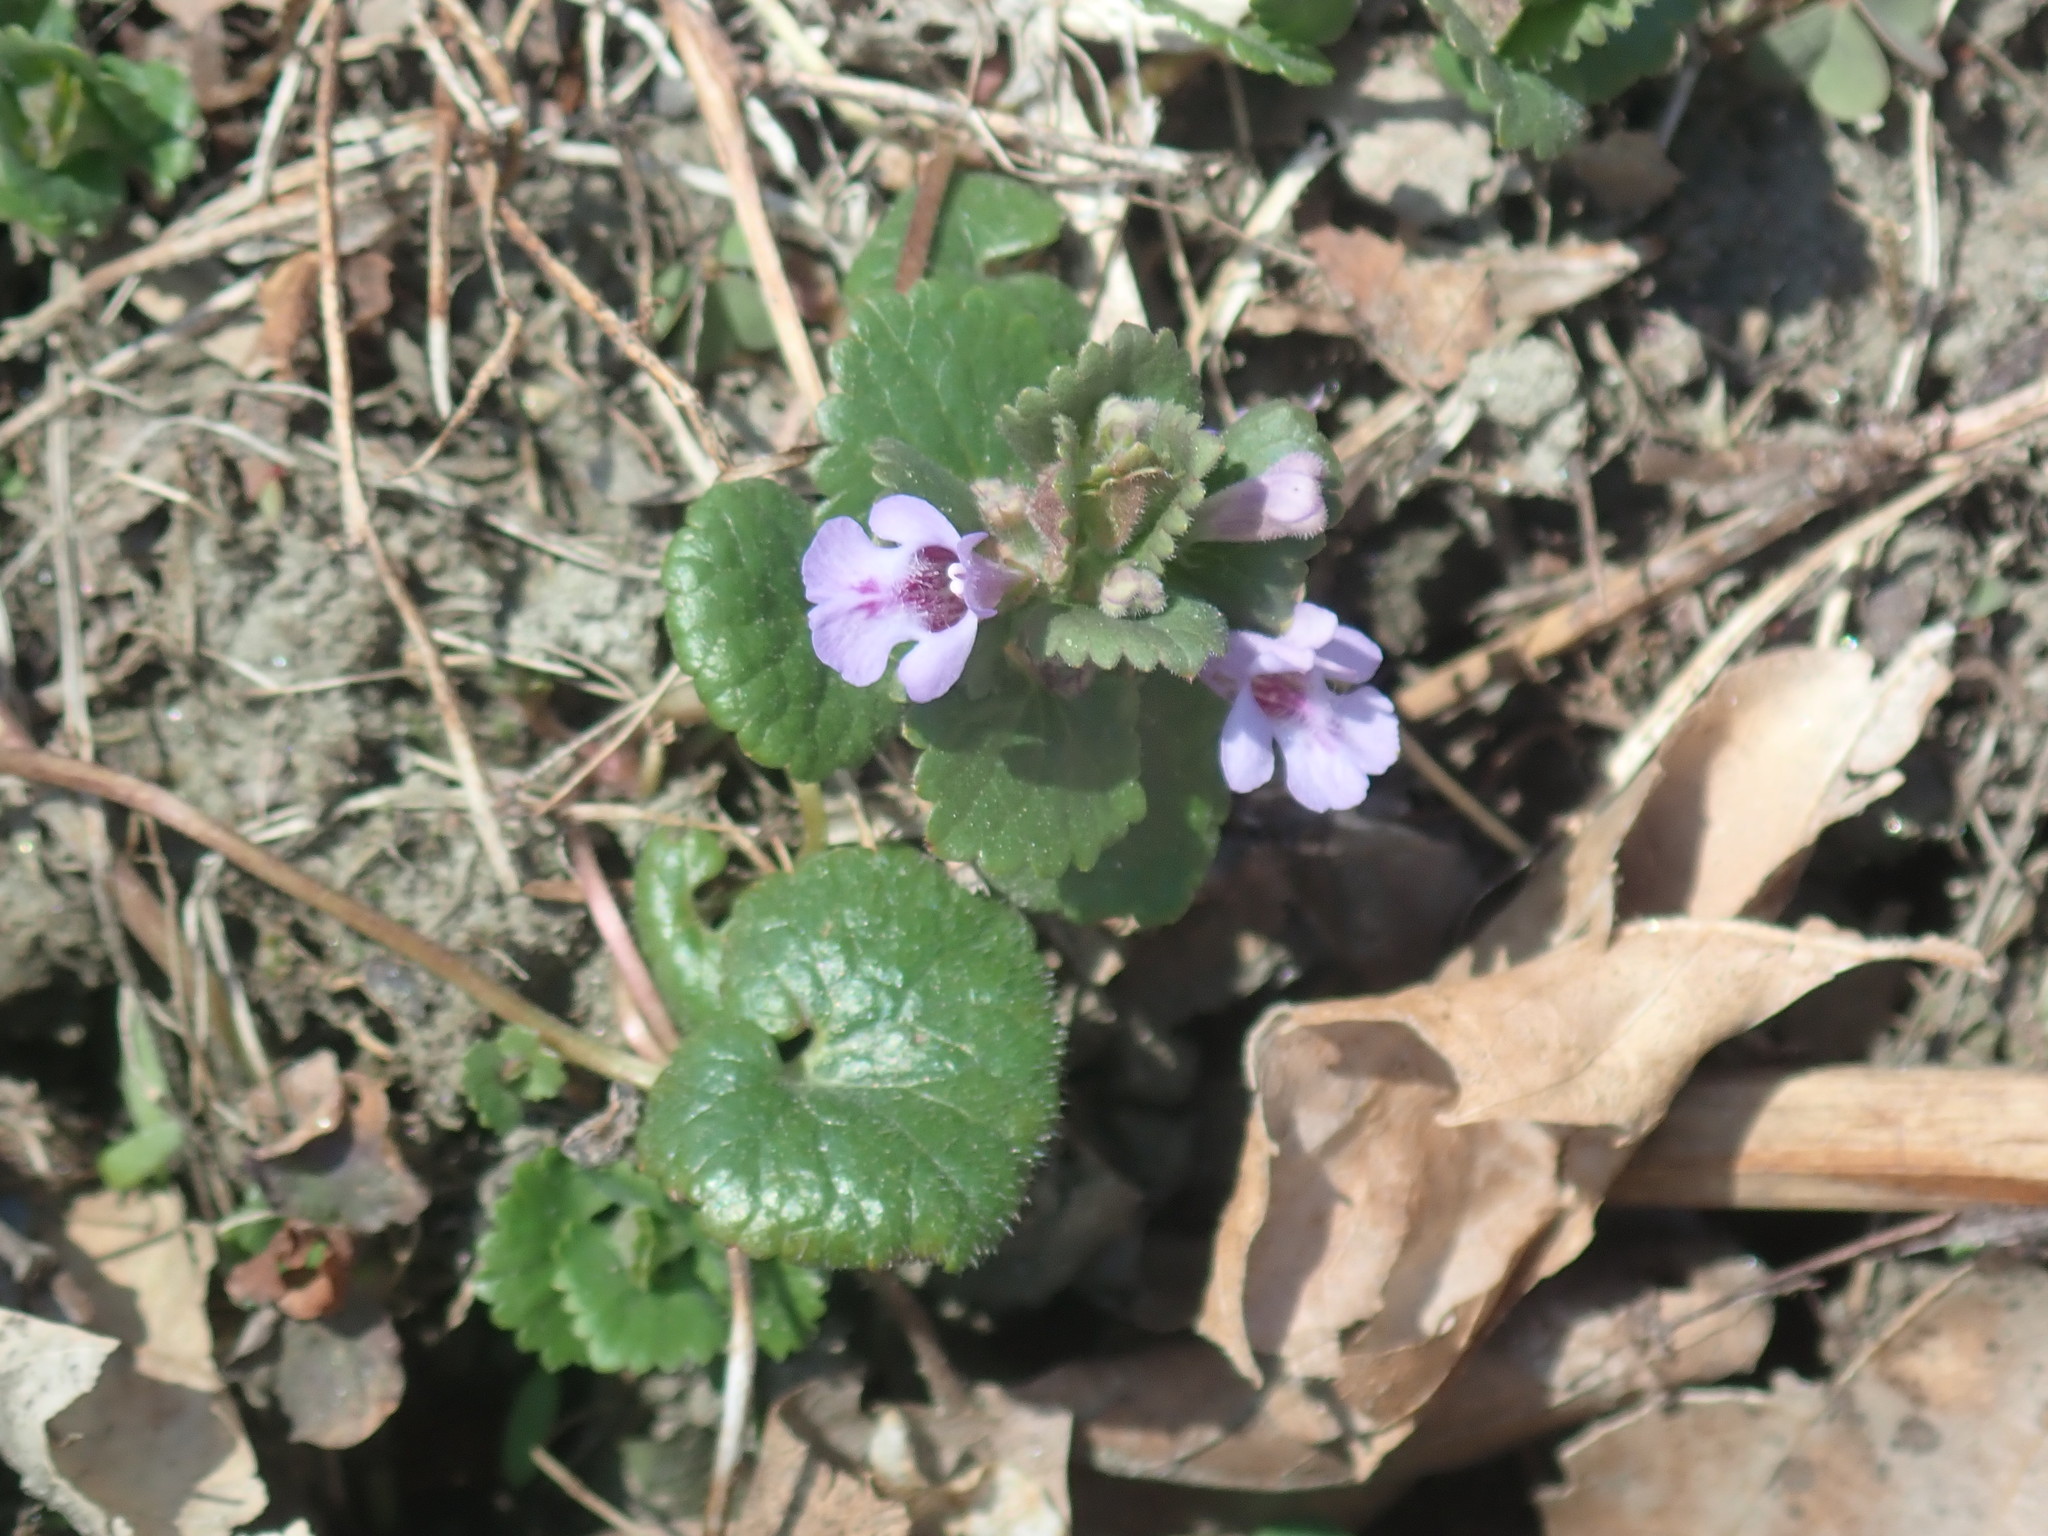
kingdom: Plantae
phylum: Tracheophyta
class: Magnoliopsida
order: Lamiales
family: Lamiaceae
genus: Glechoma
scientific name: Glechoma hederacea
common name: Ground ivy
